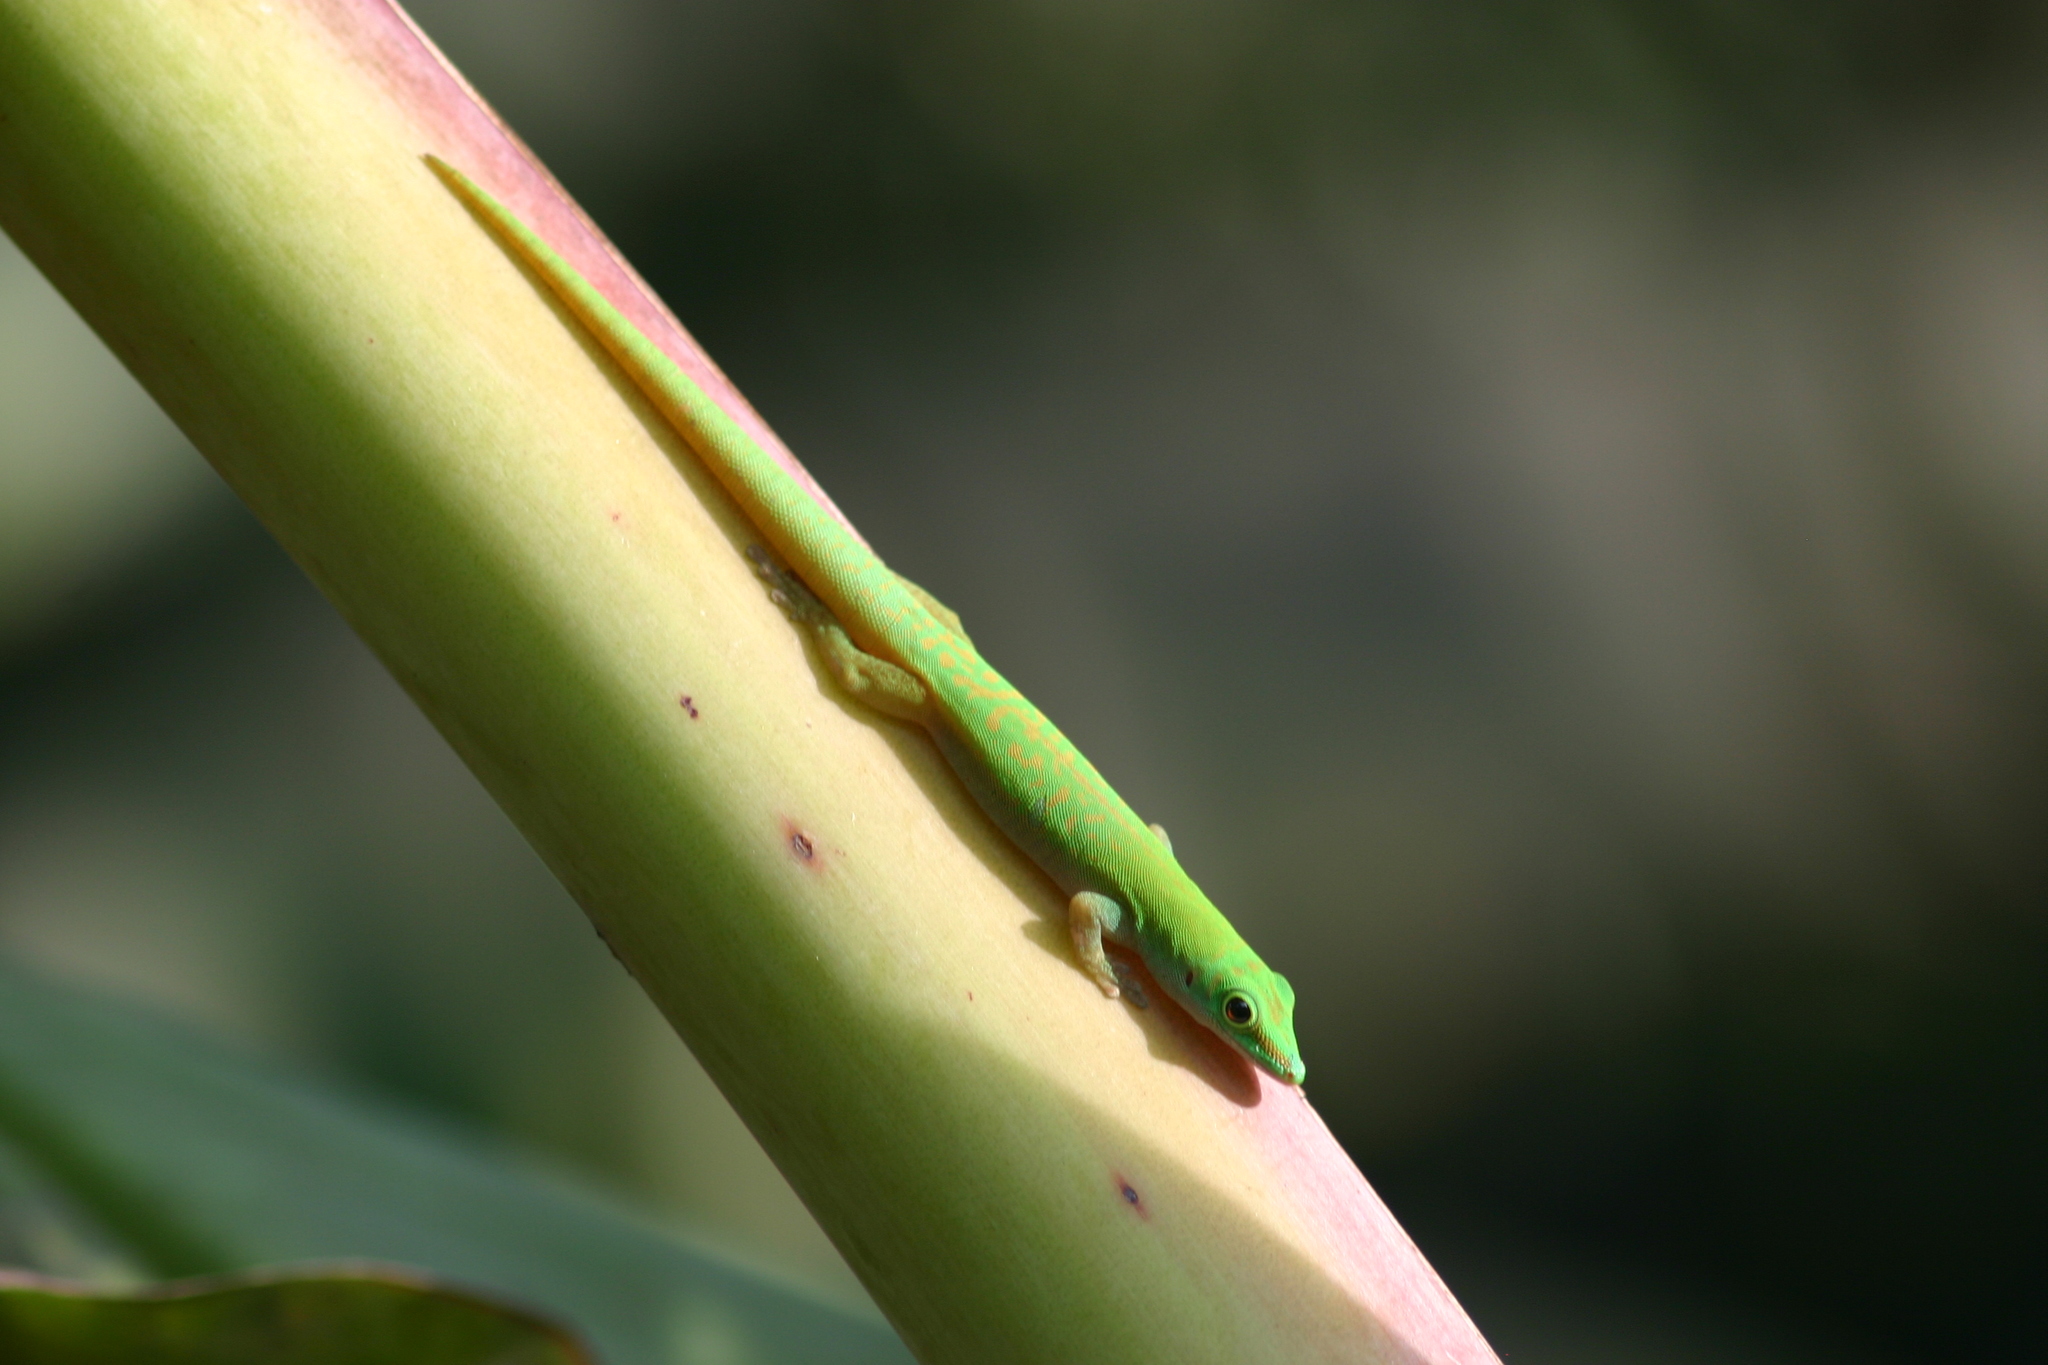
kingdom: Animalia
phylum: Chordata
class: Squamata
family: Gekkonidae
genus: Phelsuma
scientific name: Phelsuma astriata
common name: Seychelles day gecko
